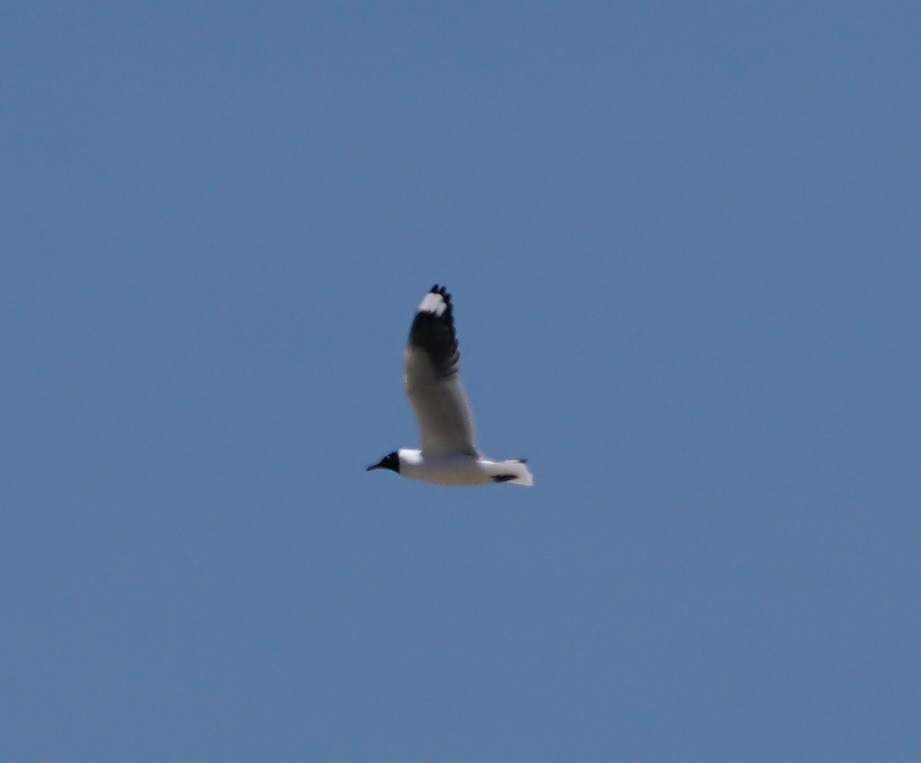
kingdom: Animalia
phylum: Chordata
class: Aves
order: Charadriiformes
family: Laridae
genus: Chroicocephalus
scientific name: Chroicocephalus serranus
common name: Andean gull
